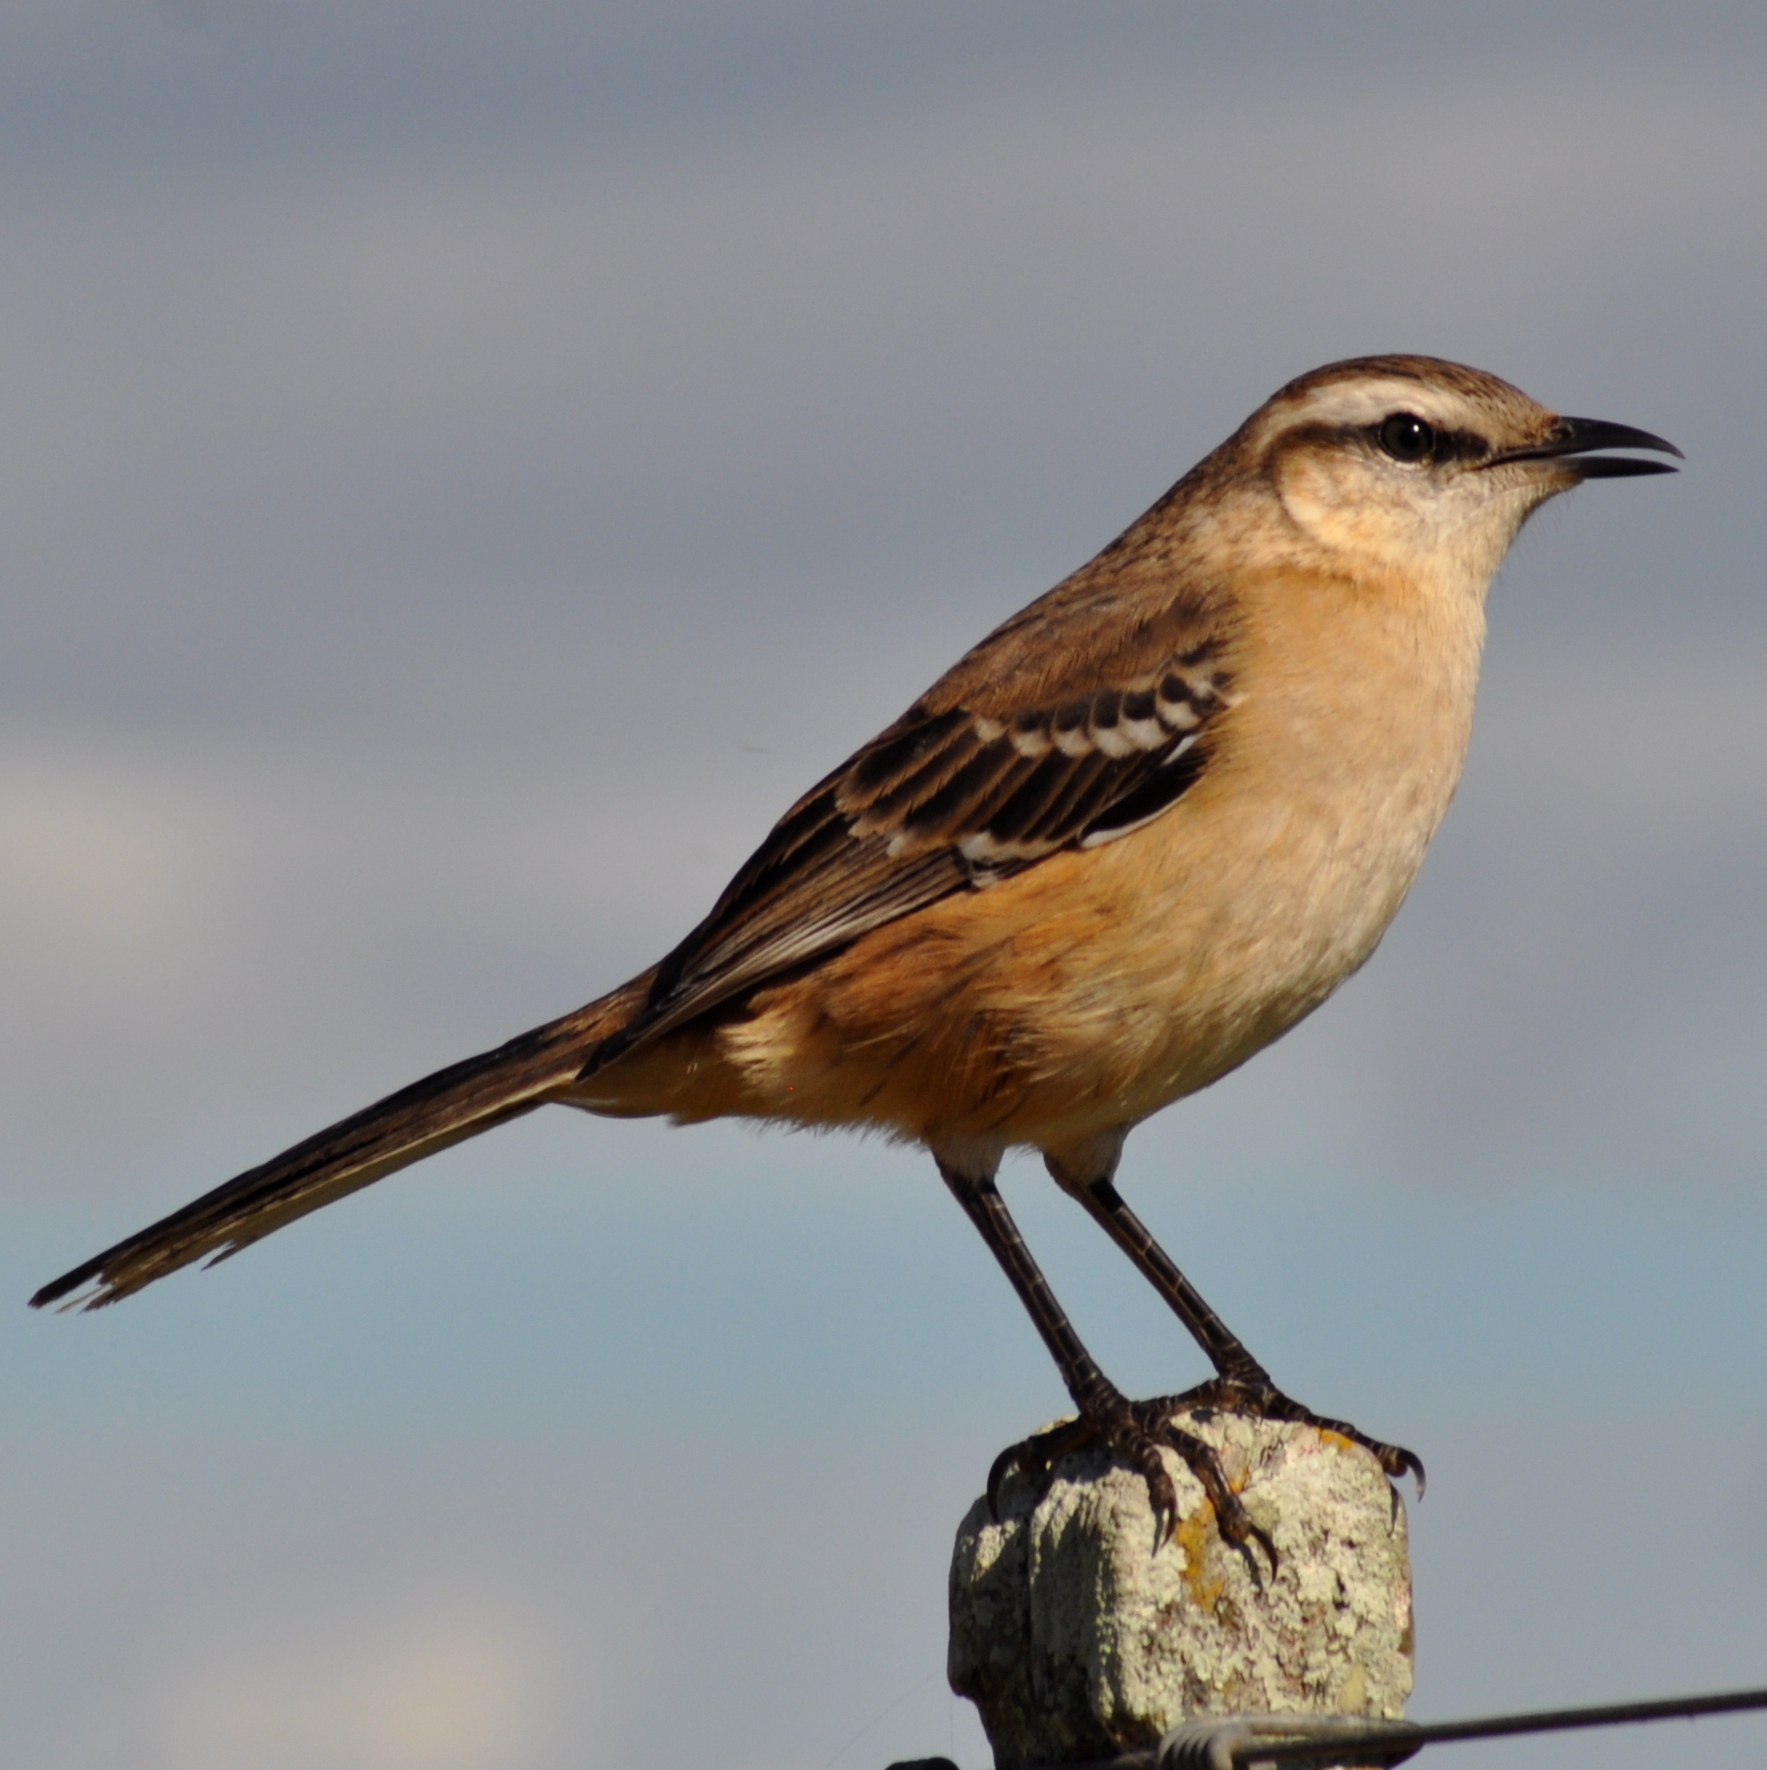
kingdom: Animalia
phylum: Chordata
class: Aves
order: Passeriformes
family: Mimidae
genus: Mimus
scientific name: Mimus saturninus
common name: Chalk-browed mockingbird
